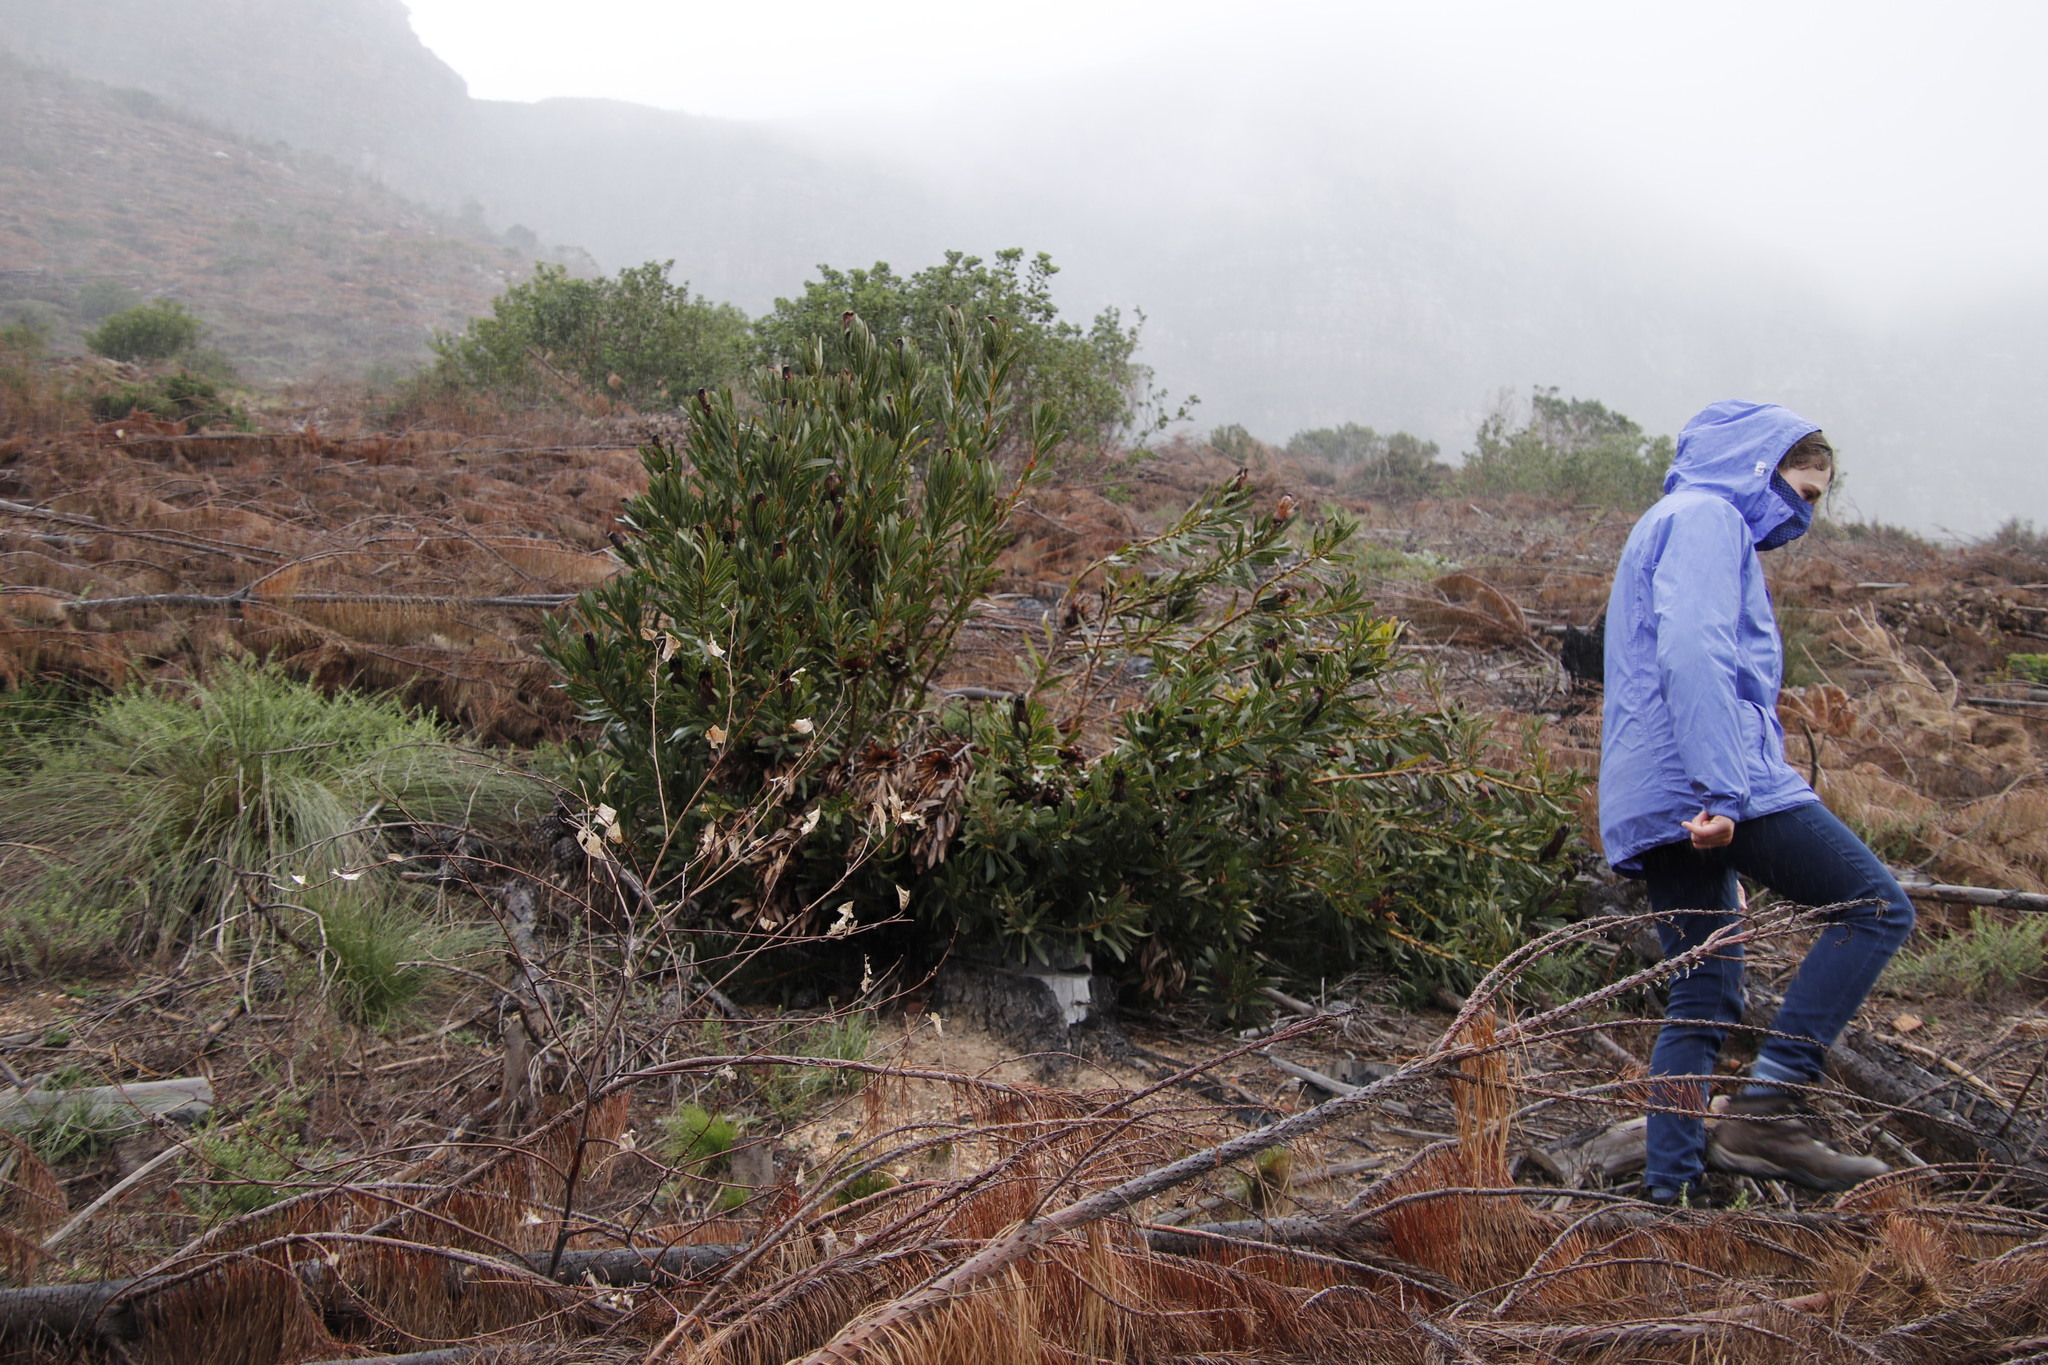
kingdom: Plantae
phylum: Tracheophyta
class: Magnoliopsida
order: Proteales
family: Proteaceae
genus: Protea
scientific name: Protea lepidocarpodendron
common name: Black-bearded protea
